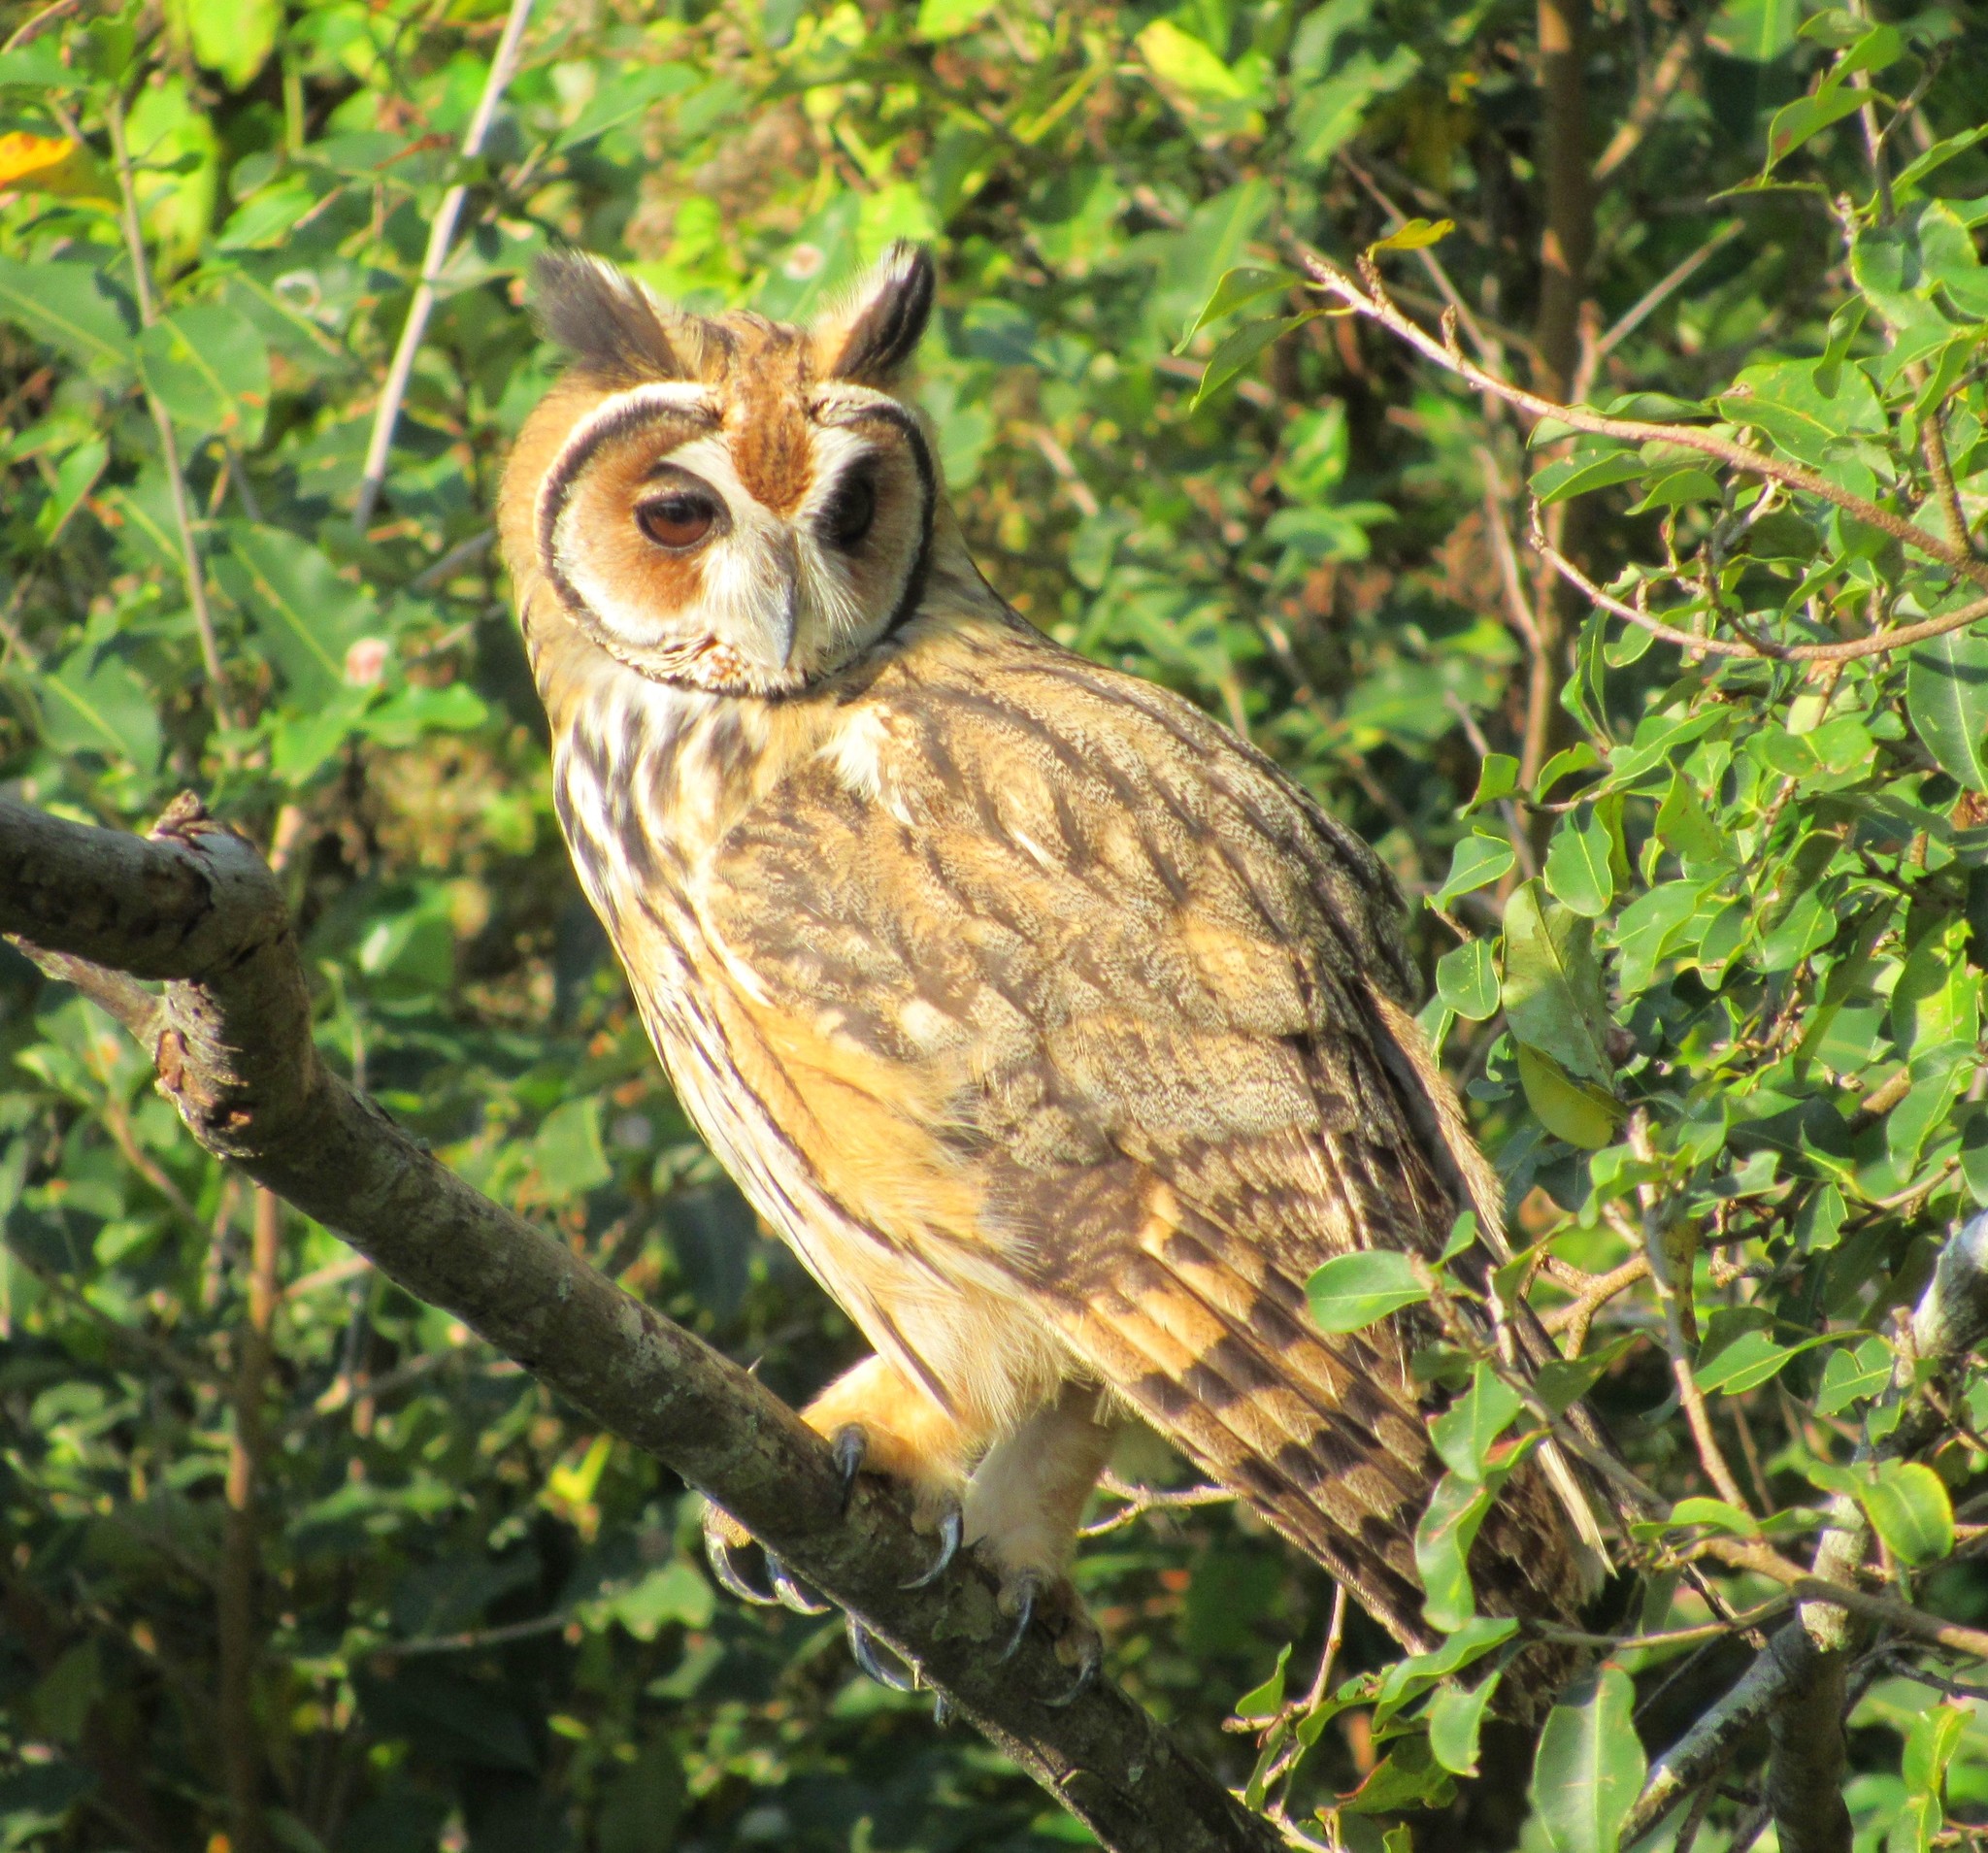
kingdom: Animalia
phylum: Chordata
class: Aves
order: Strigiformes
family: Strigidae
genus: Pseudoscops
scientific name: Pseudoscops clamator
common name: Striped owl
